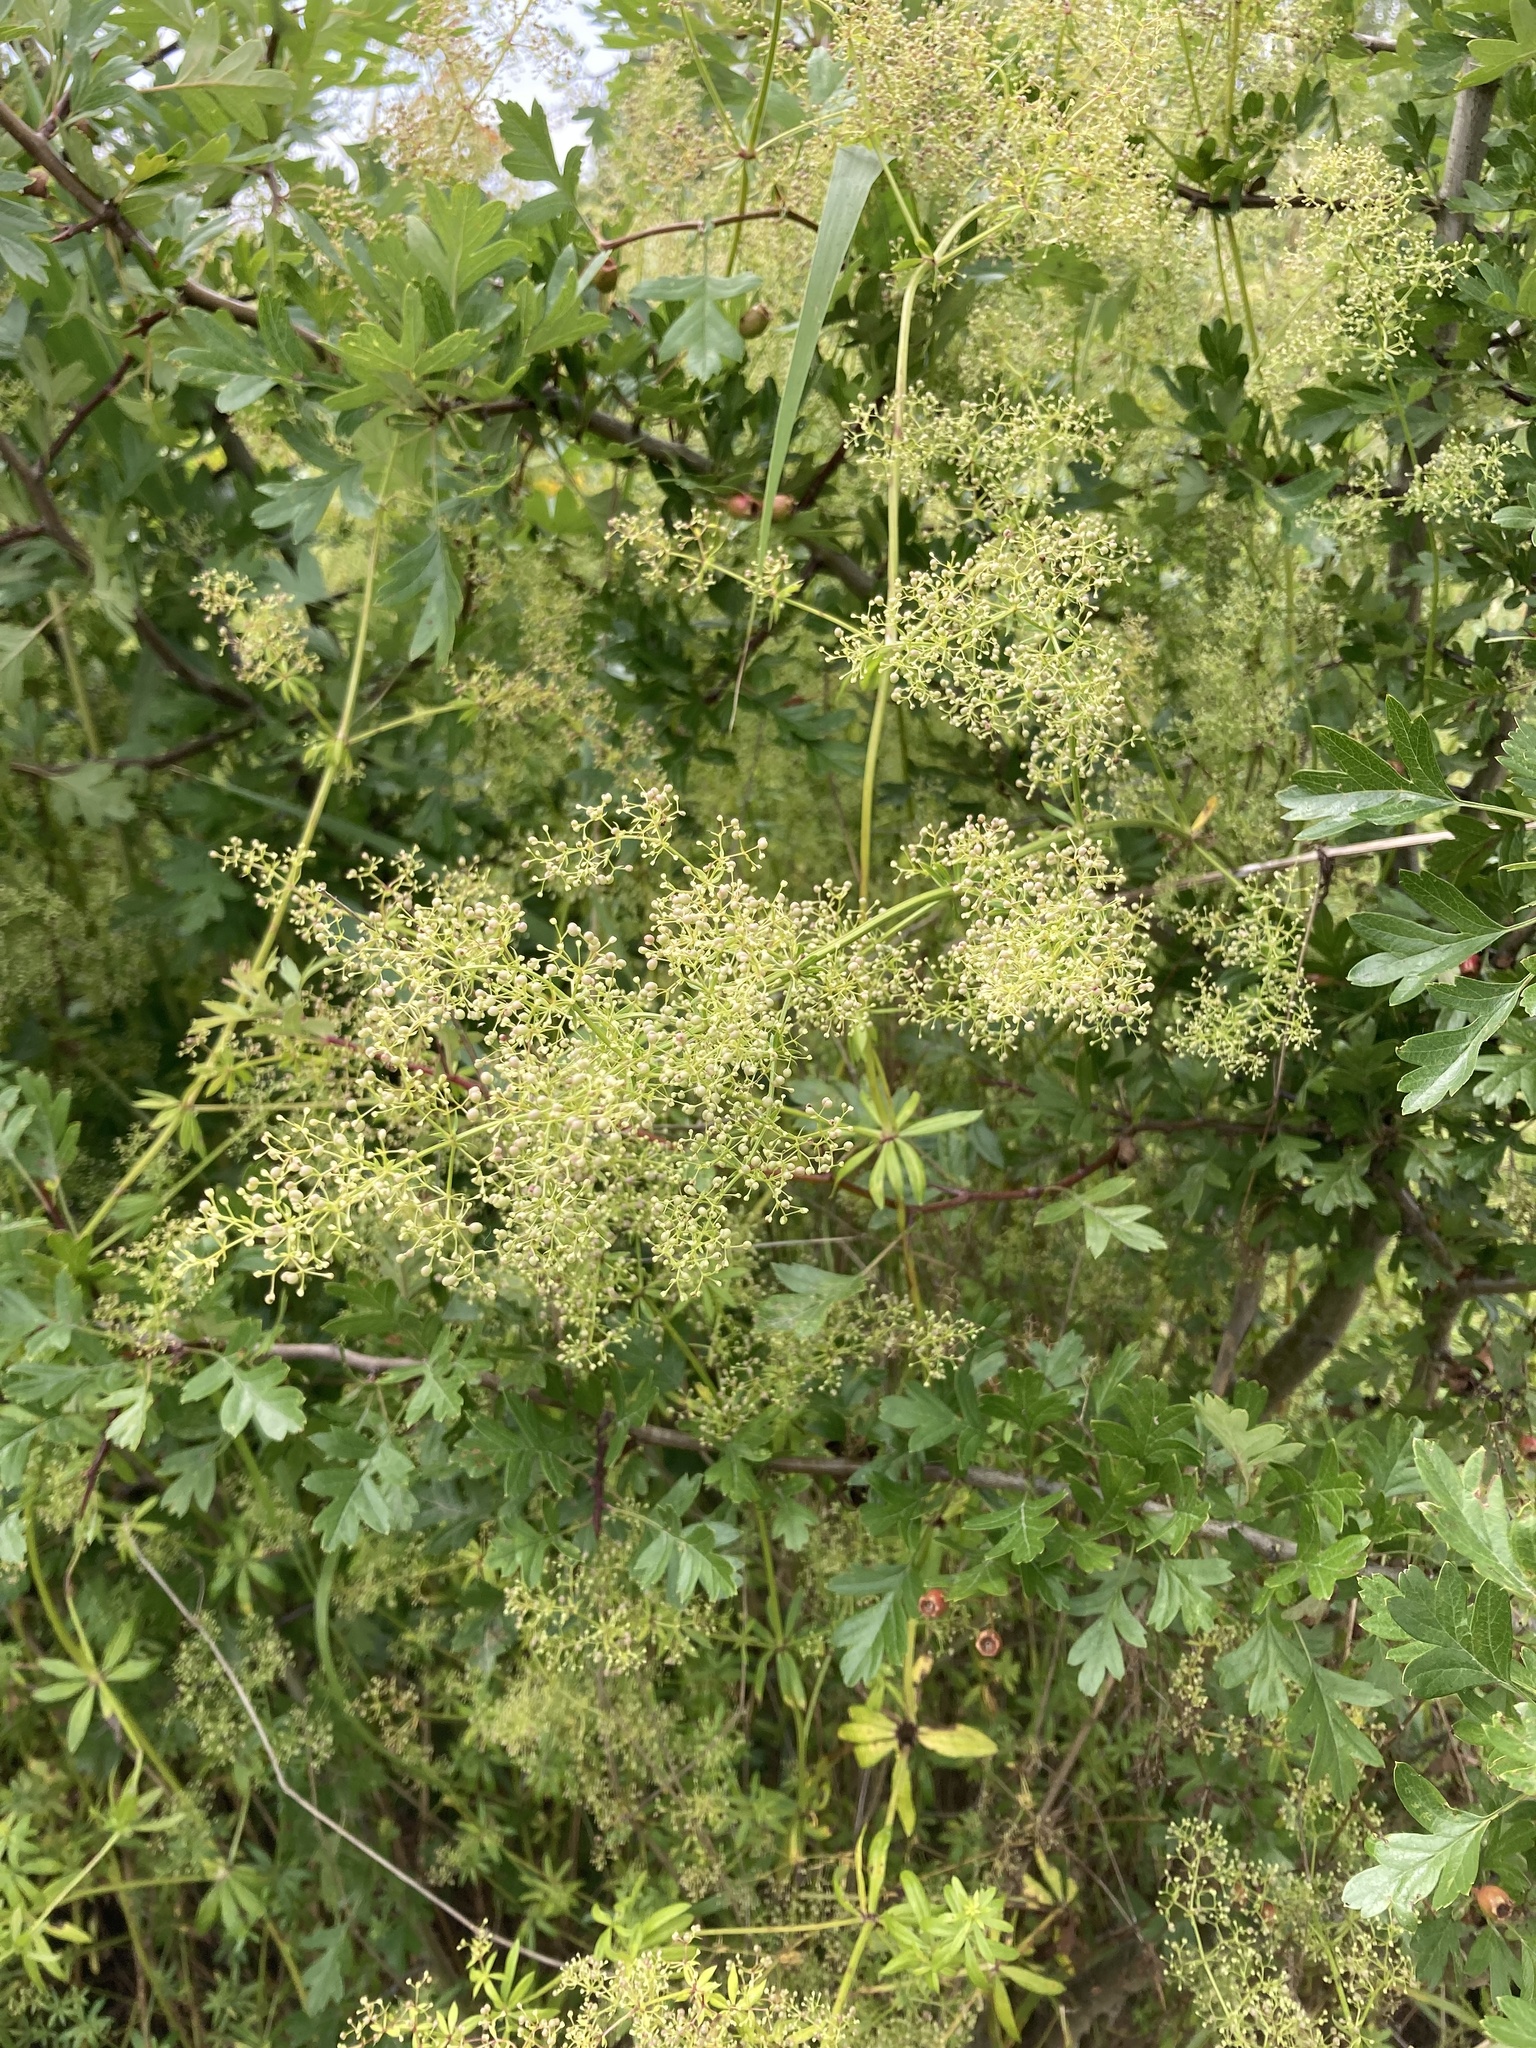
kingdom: Plantae
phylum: Tracheophyta
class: Magnoliopsida
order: Gentianales
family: Rubiaceae
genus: Galium
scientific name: Galium mollugo
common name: Hedge bedstraw
